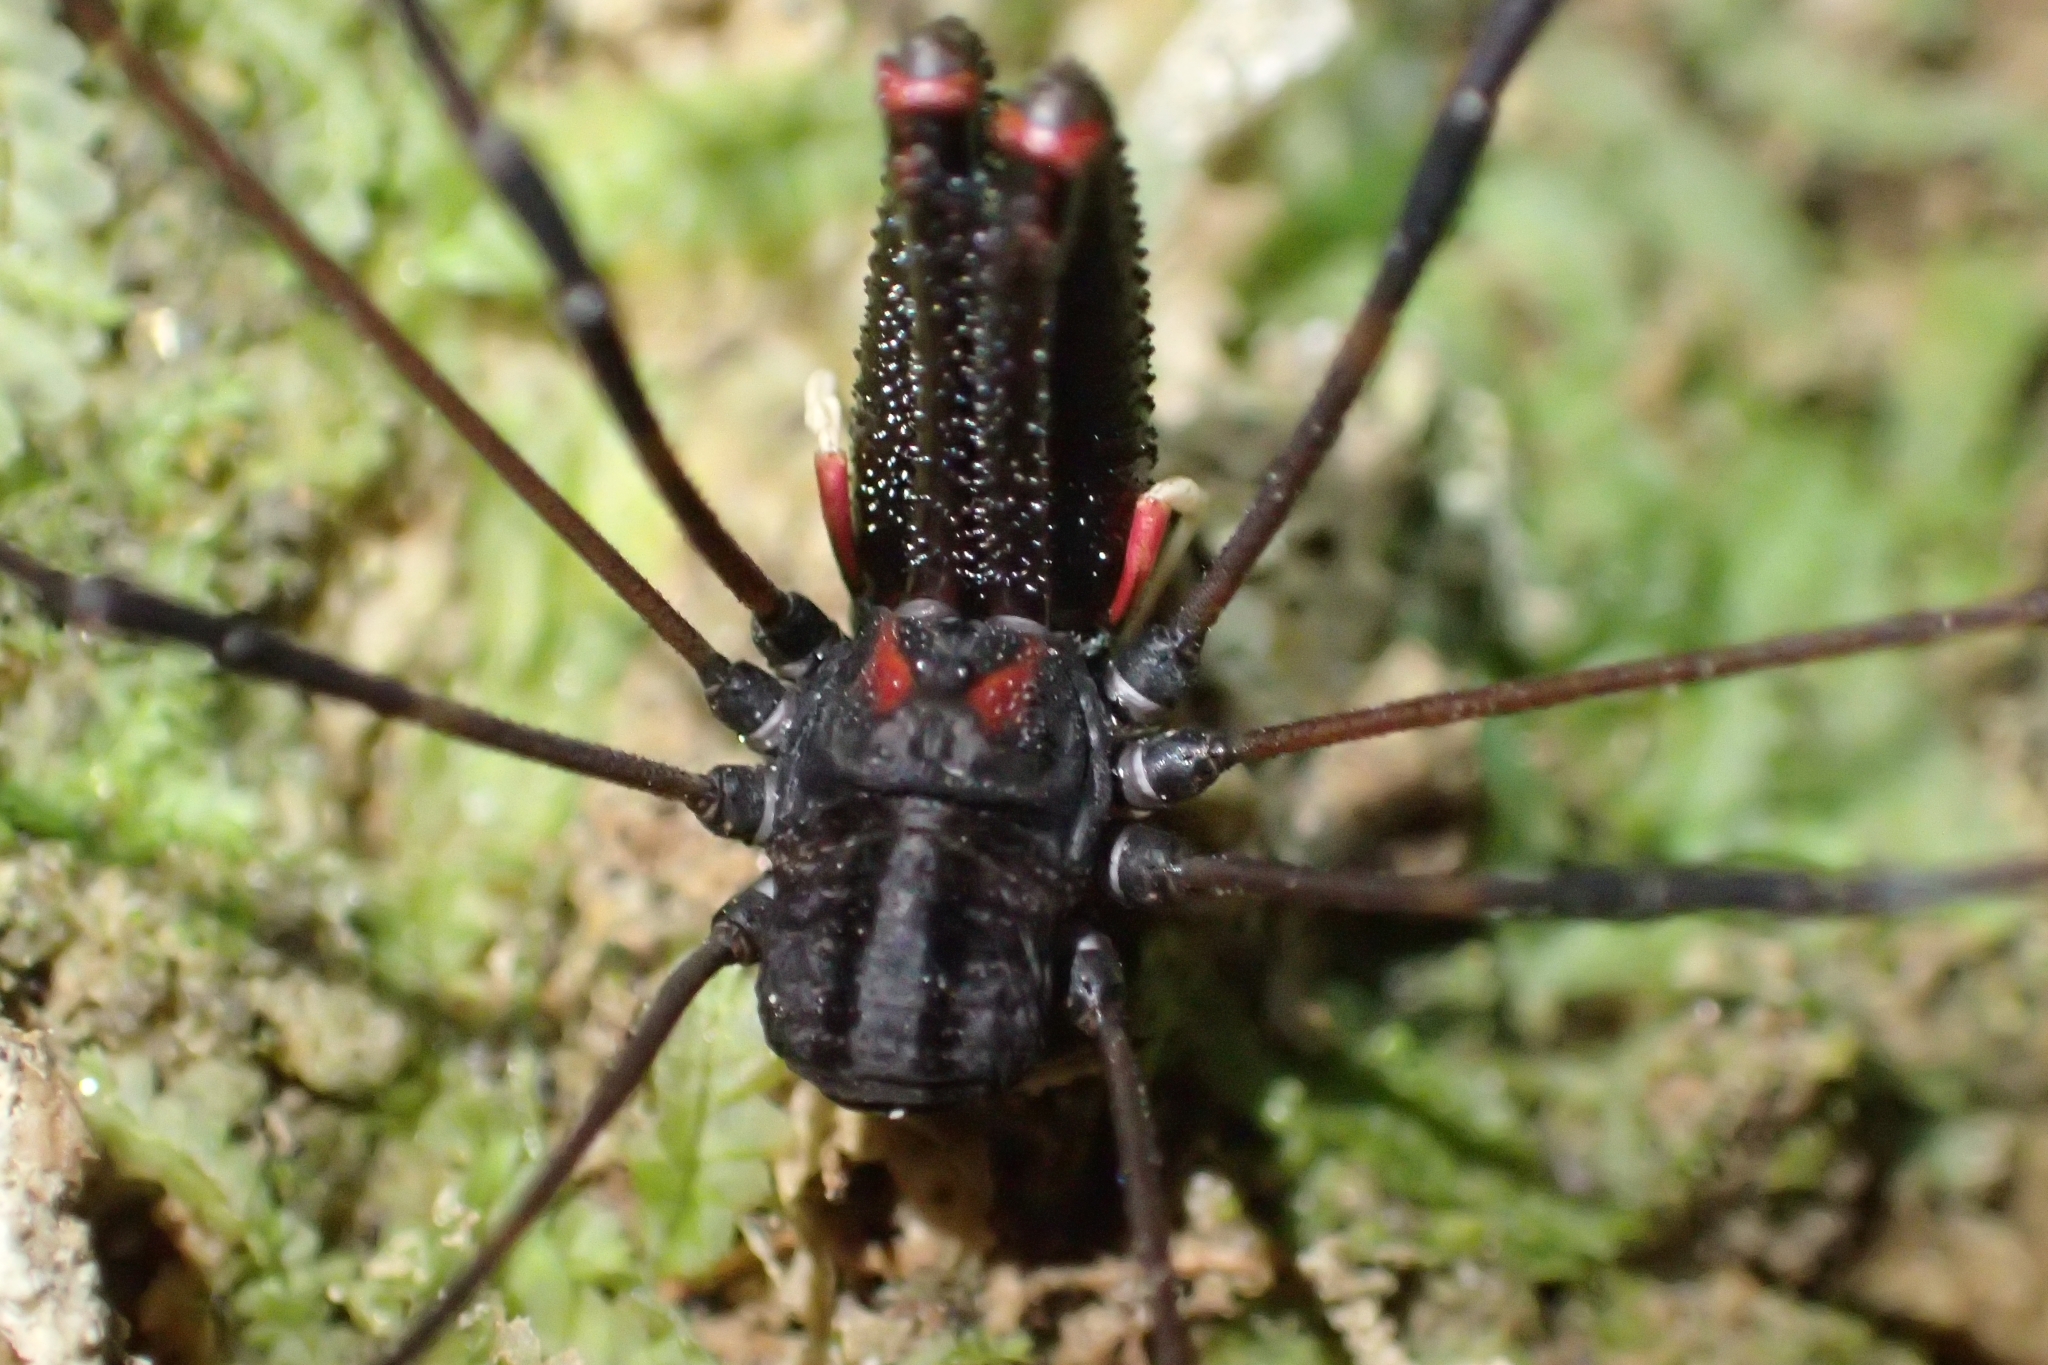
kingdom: Animalia
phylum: Arthropoda
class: Arachnida
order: Opiliones
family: Neopilionidae
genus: Forsteropsalis
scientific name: Forsteropsalis inconstans
